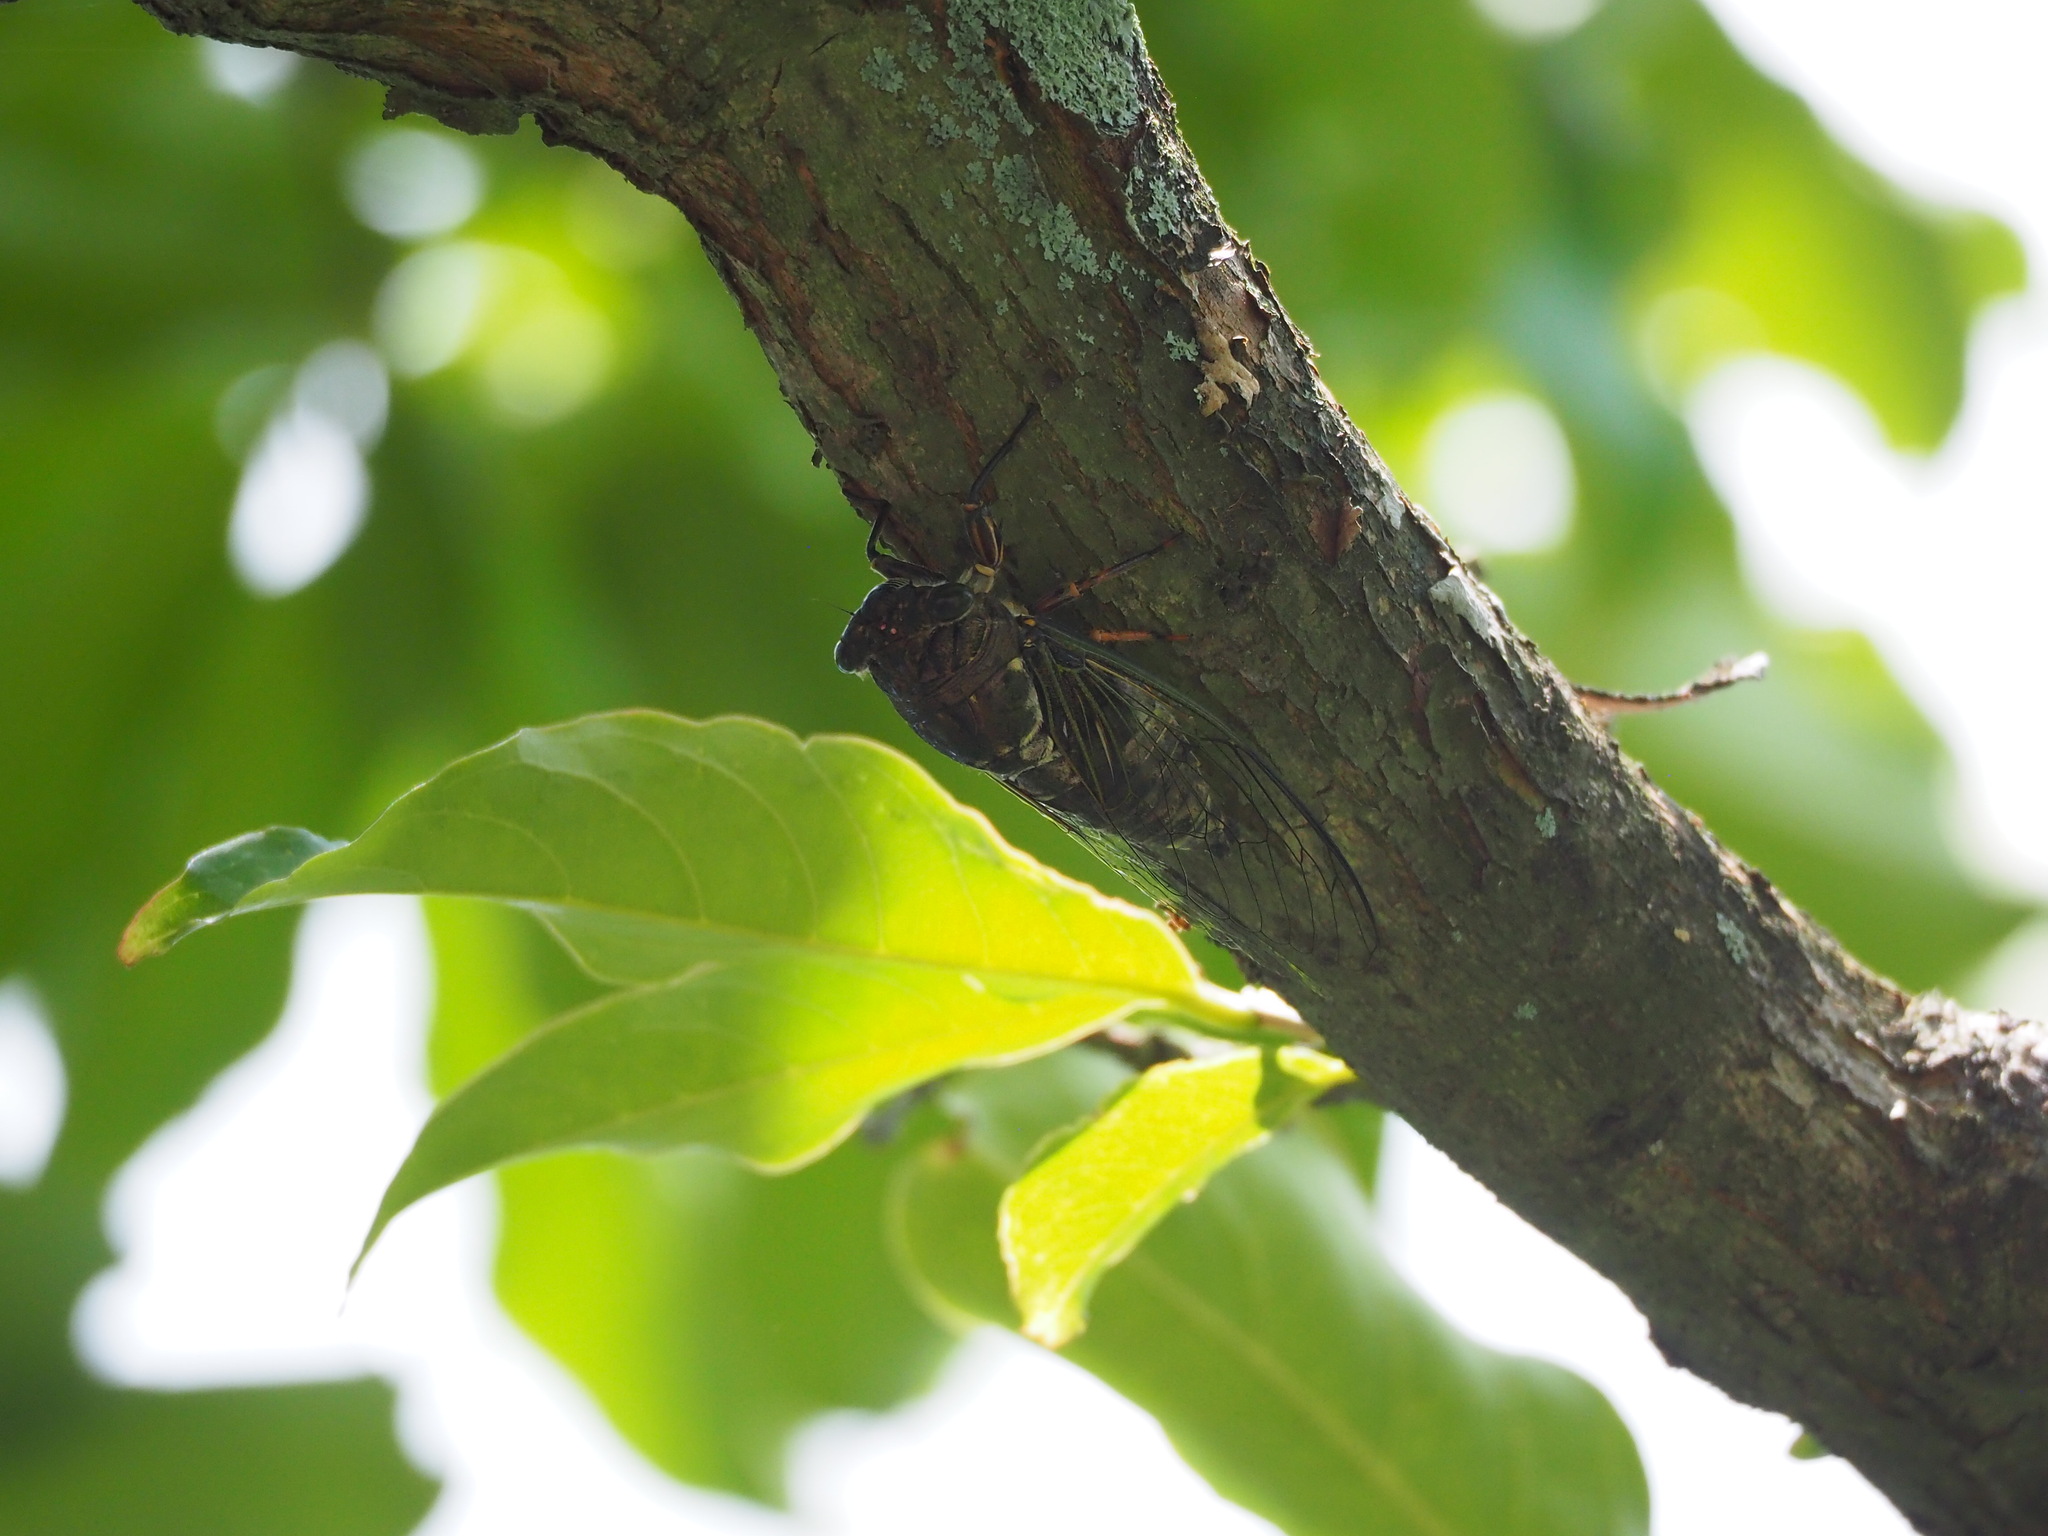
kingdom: Animalia
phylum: Arthropoda
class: Insecta
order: Hemiptera
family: Cicadidae
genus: Cryptotympana
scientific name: Cryptotympana takasagona
